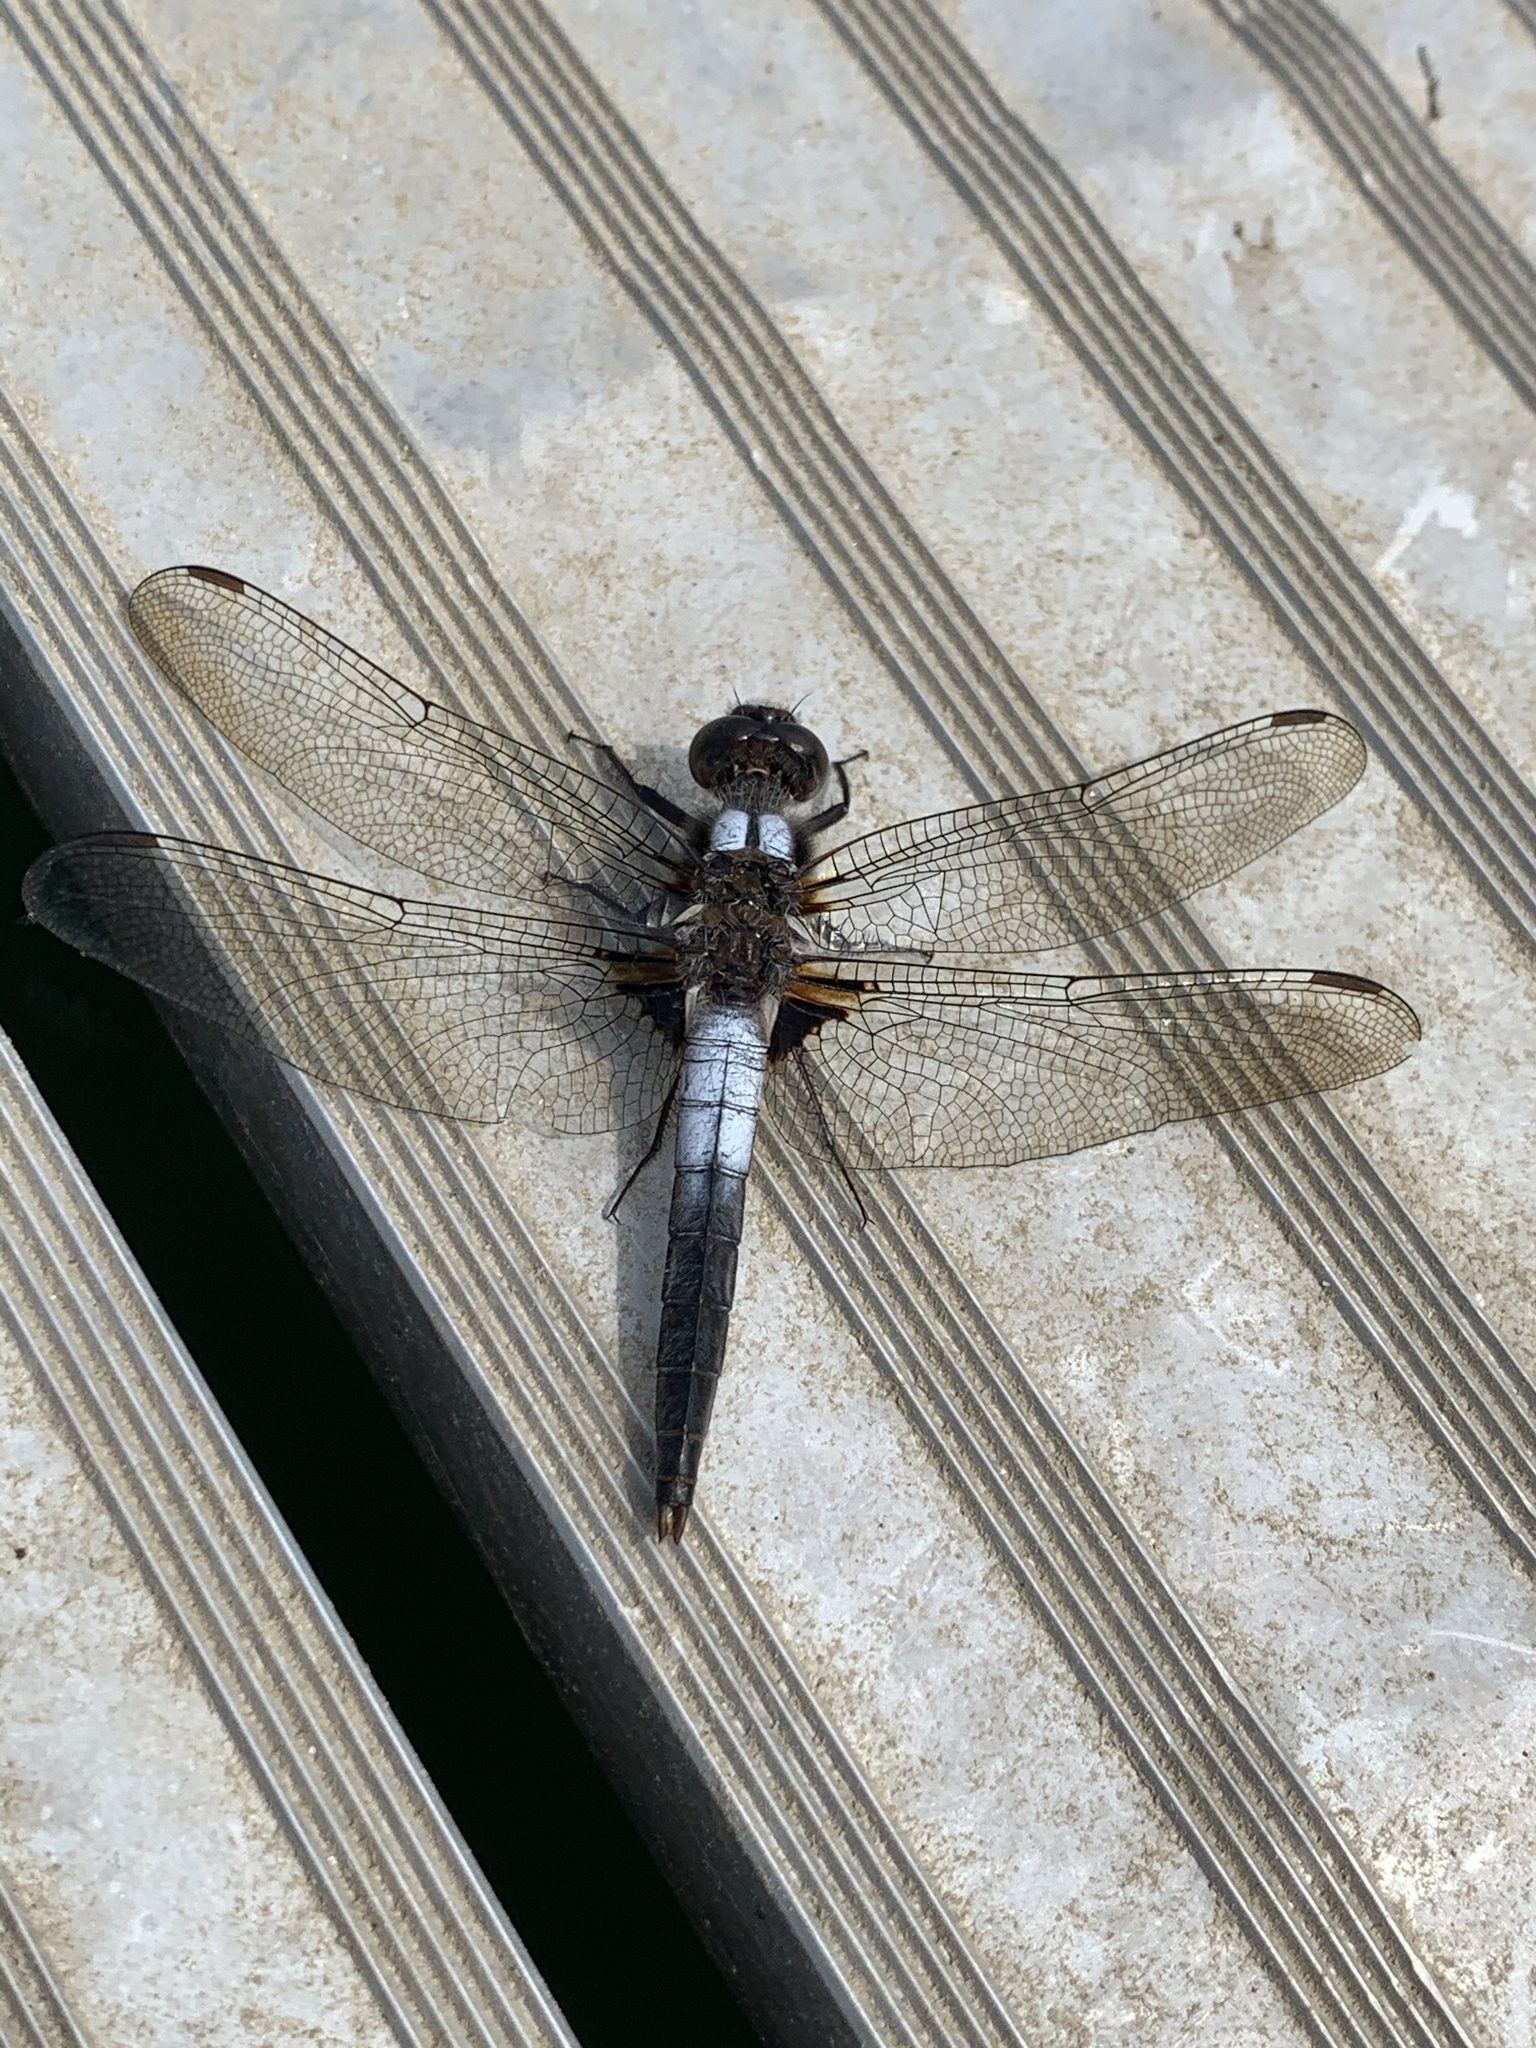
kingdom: Animalia
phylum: Arthropoda
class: Insecta
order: Odonata
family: Libellulidae
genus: Ladona
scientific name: Ladona julia
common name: Chalk-fronted corporal
